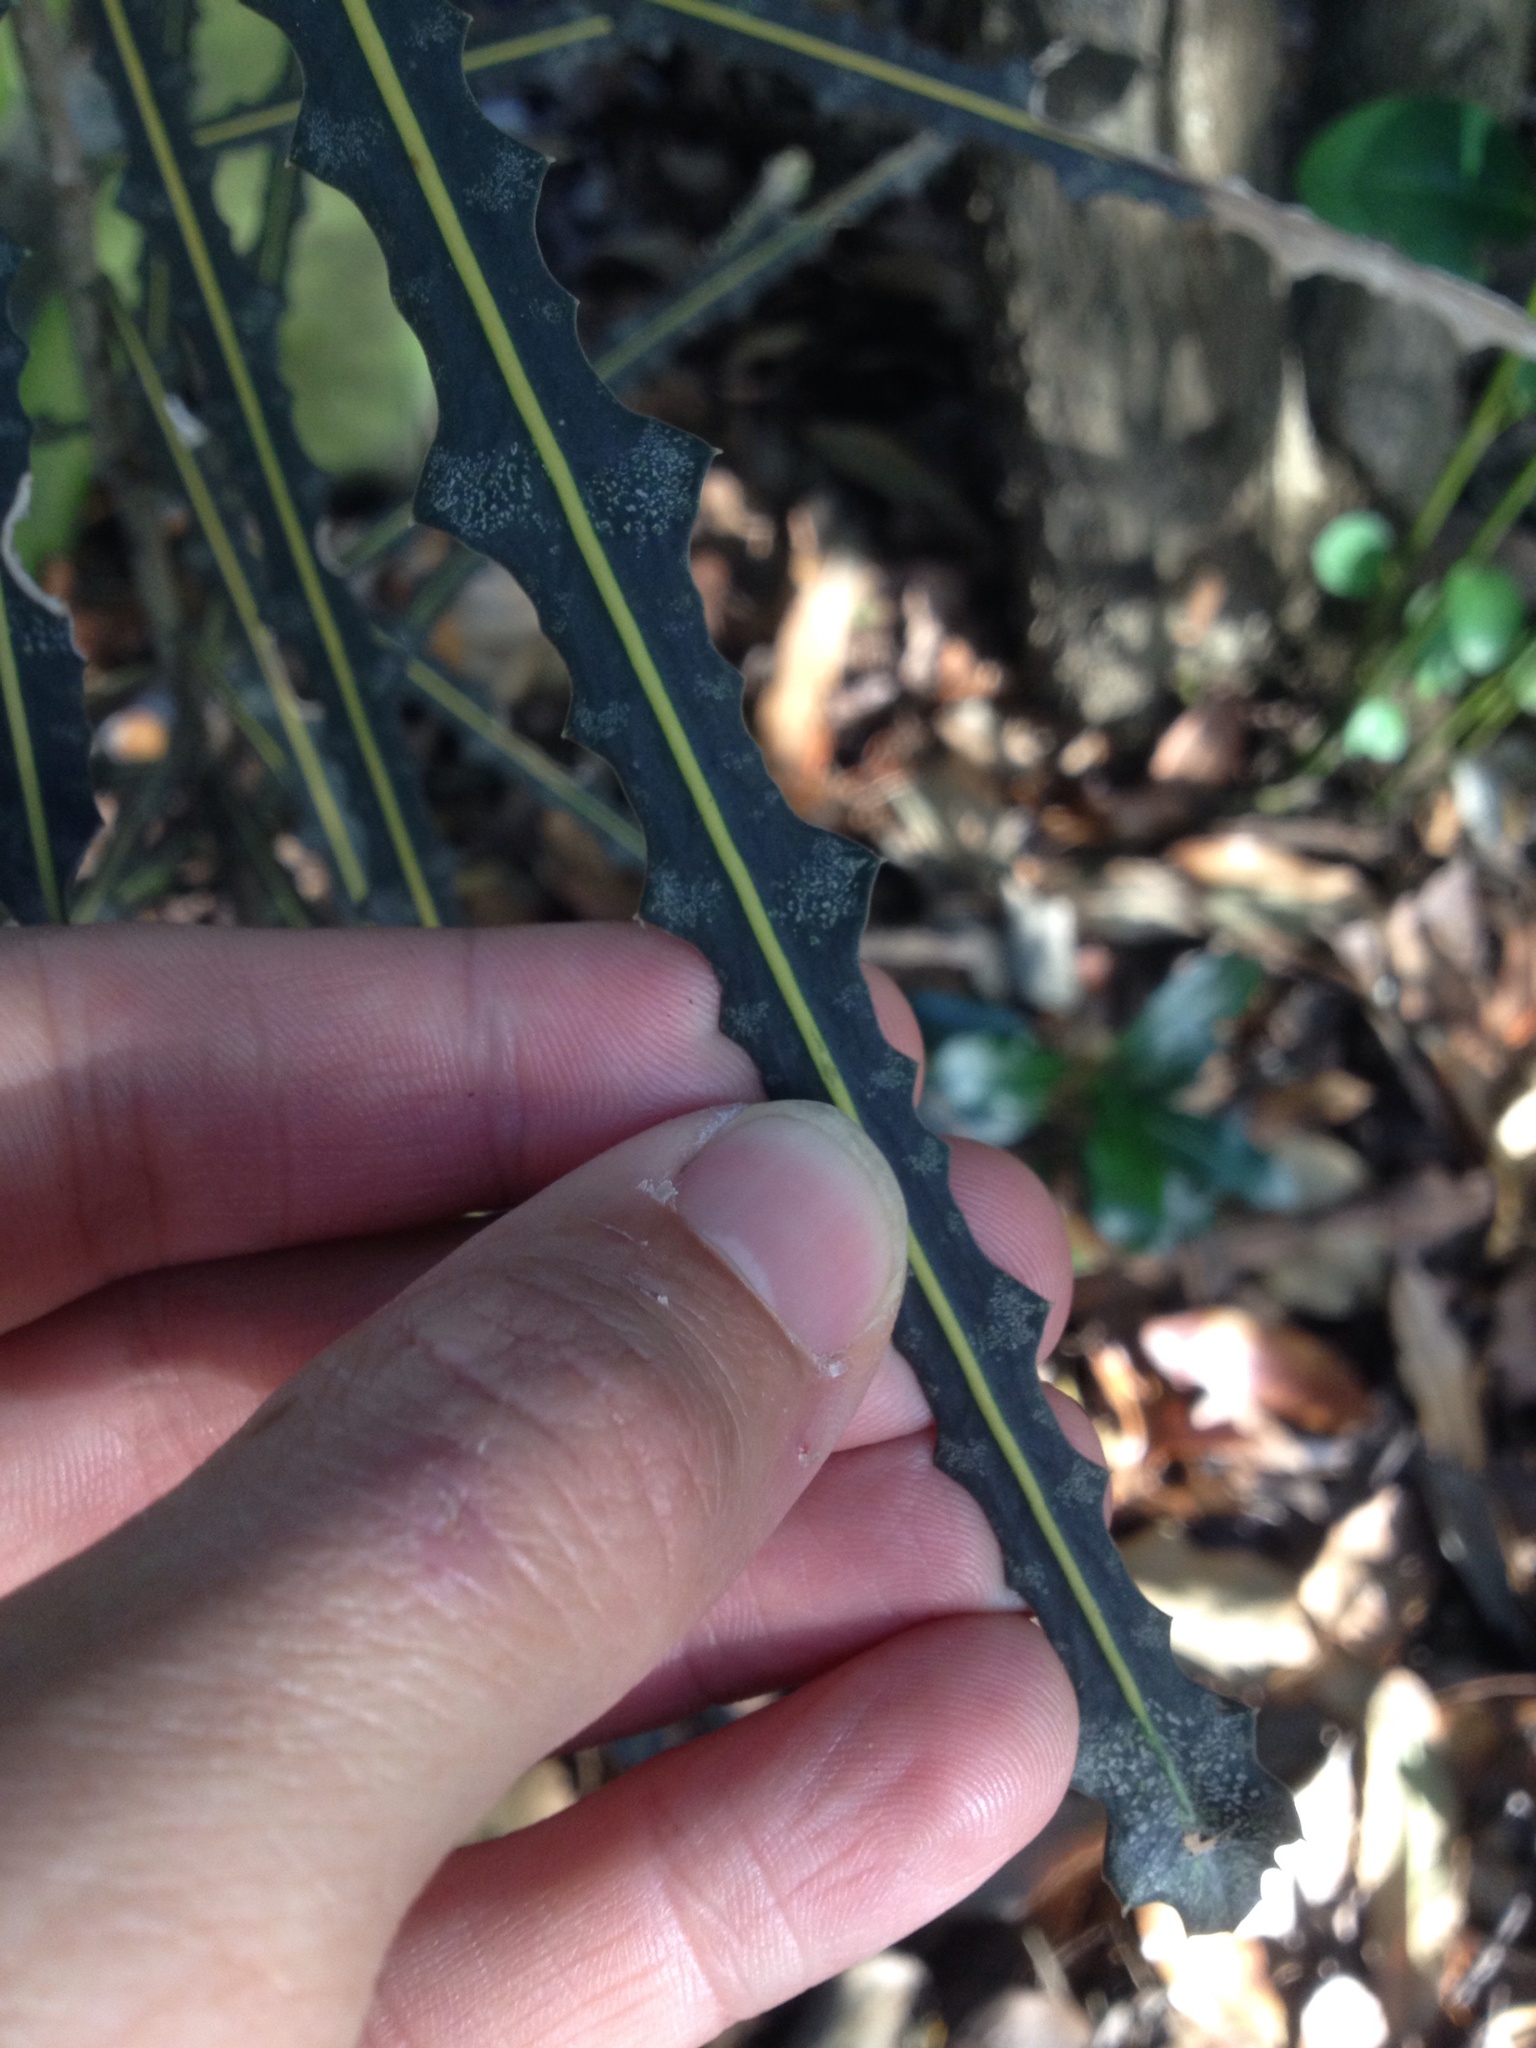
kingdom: Plantae
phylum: Tracheophyta
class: Magnoliopsida
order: Apiales
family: Araliaceae
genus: Pseudopanax
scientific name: Pseudopanax ferox
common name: Fierce lancewood
